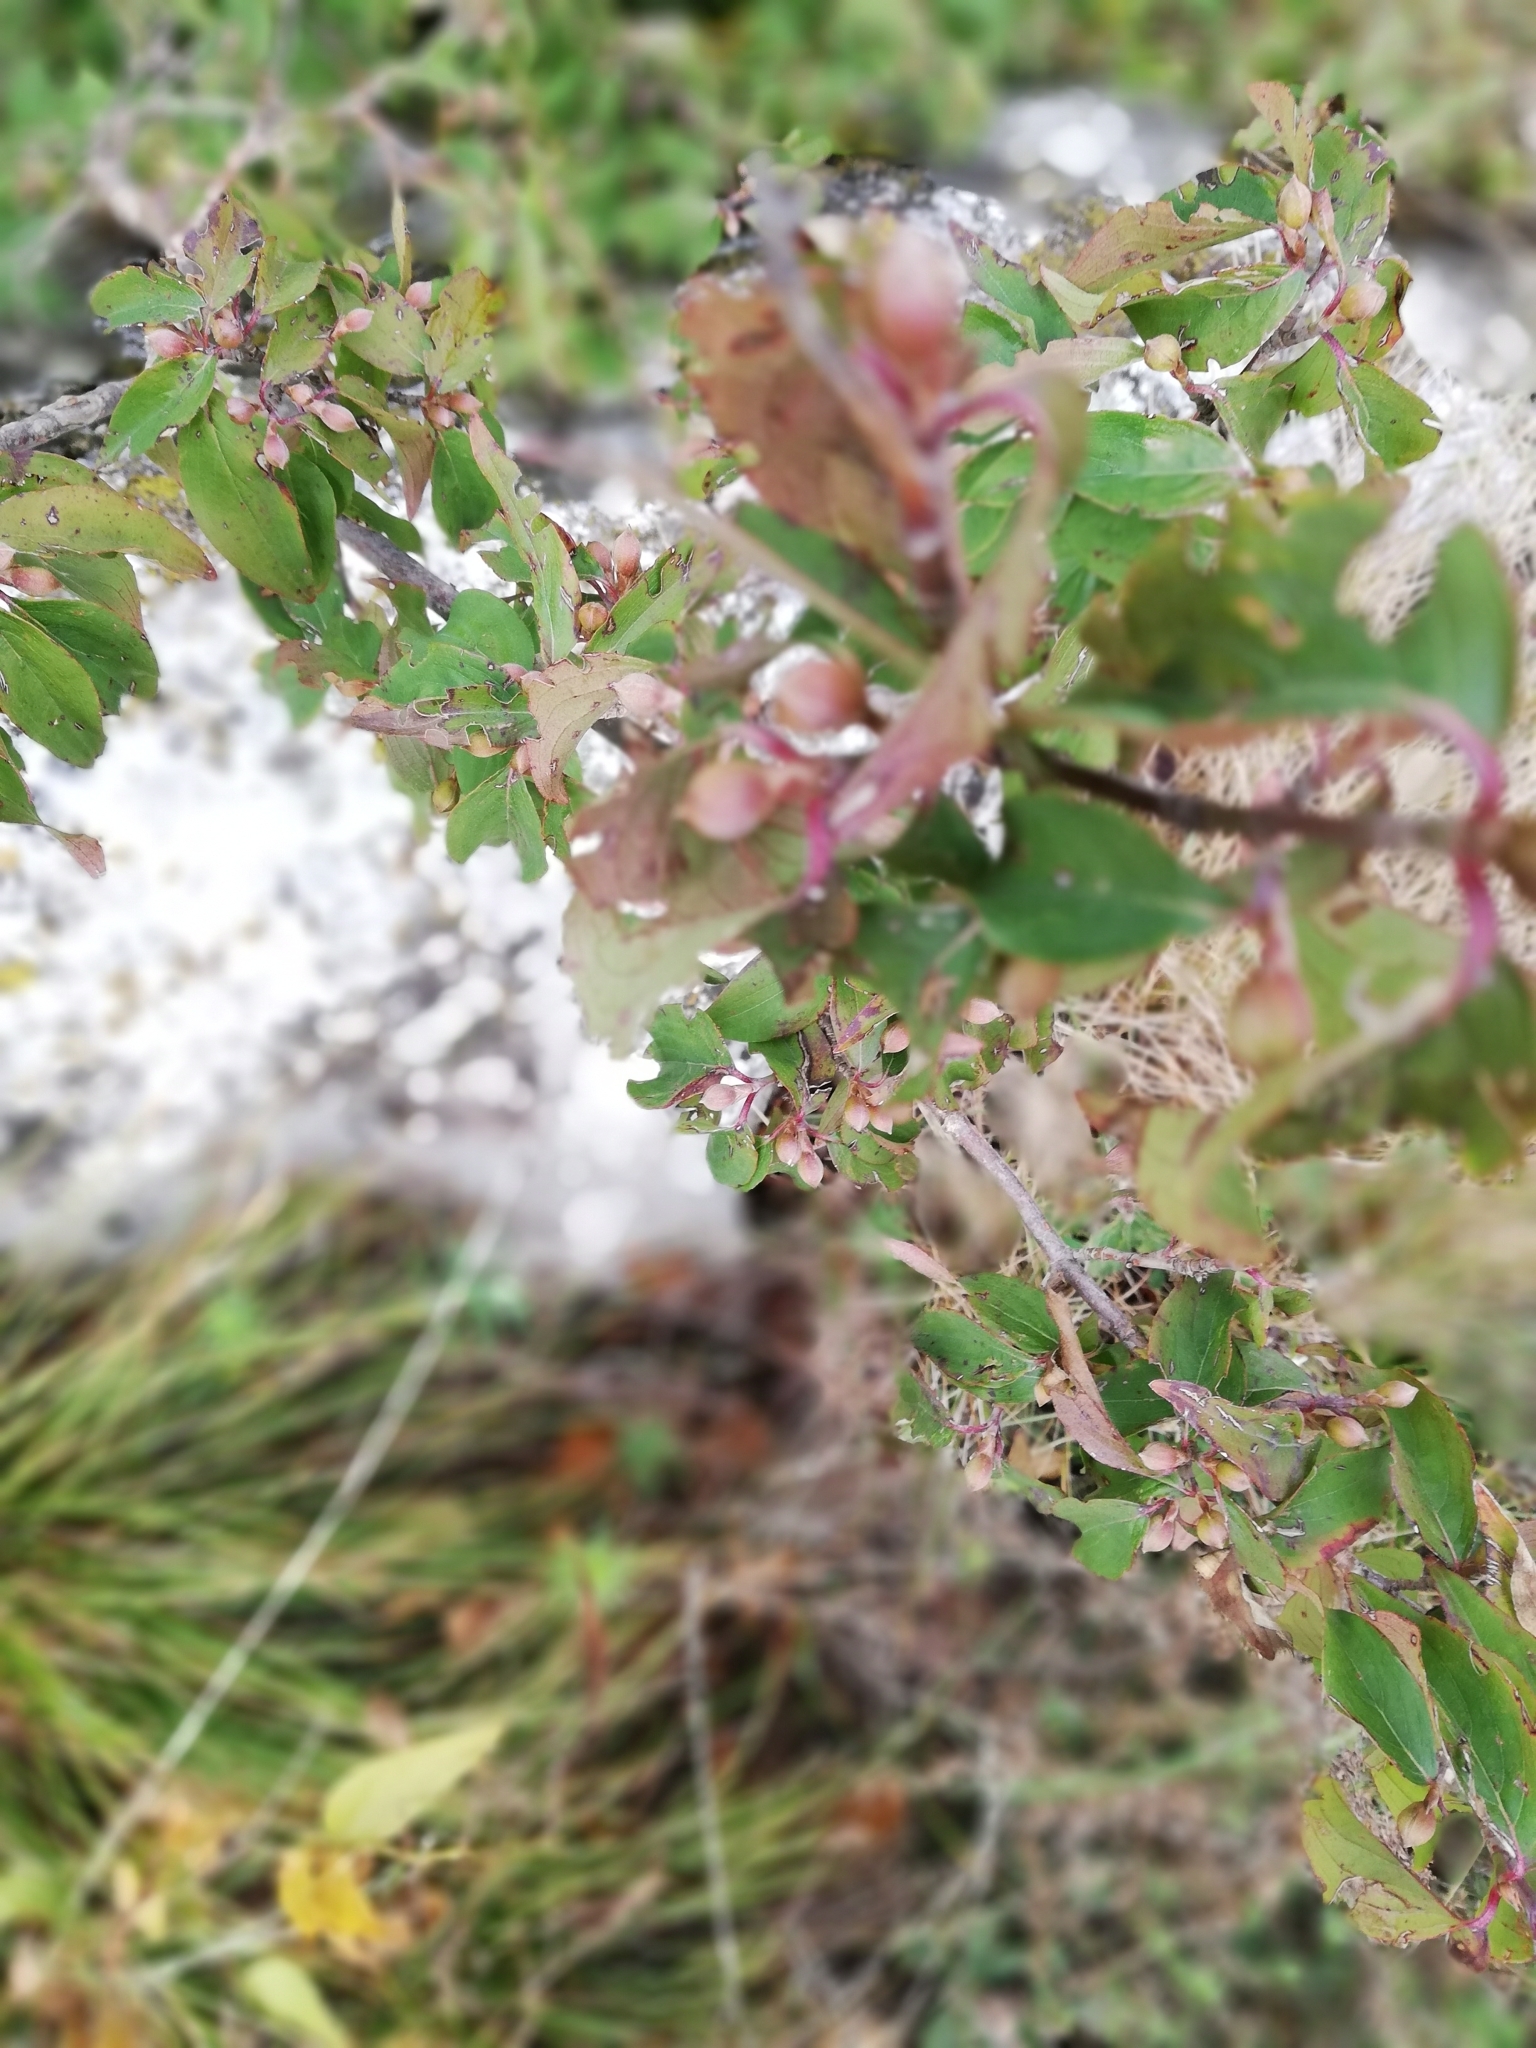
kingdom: Plantae
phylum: Tracheophyta
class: Magnoliopsida
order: Cornales
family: Cornaceae
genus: Cornus
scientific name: Cornus mas
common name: Cornelian-cherry
